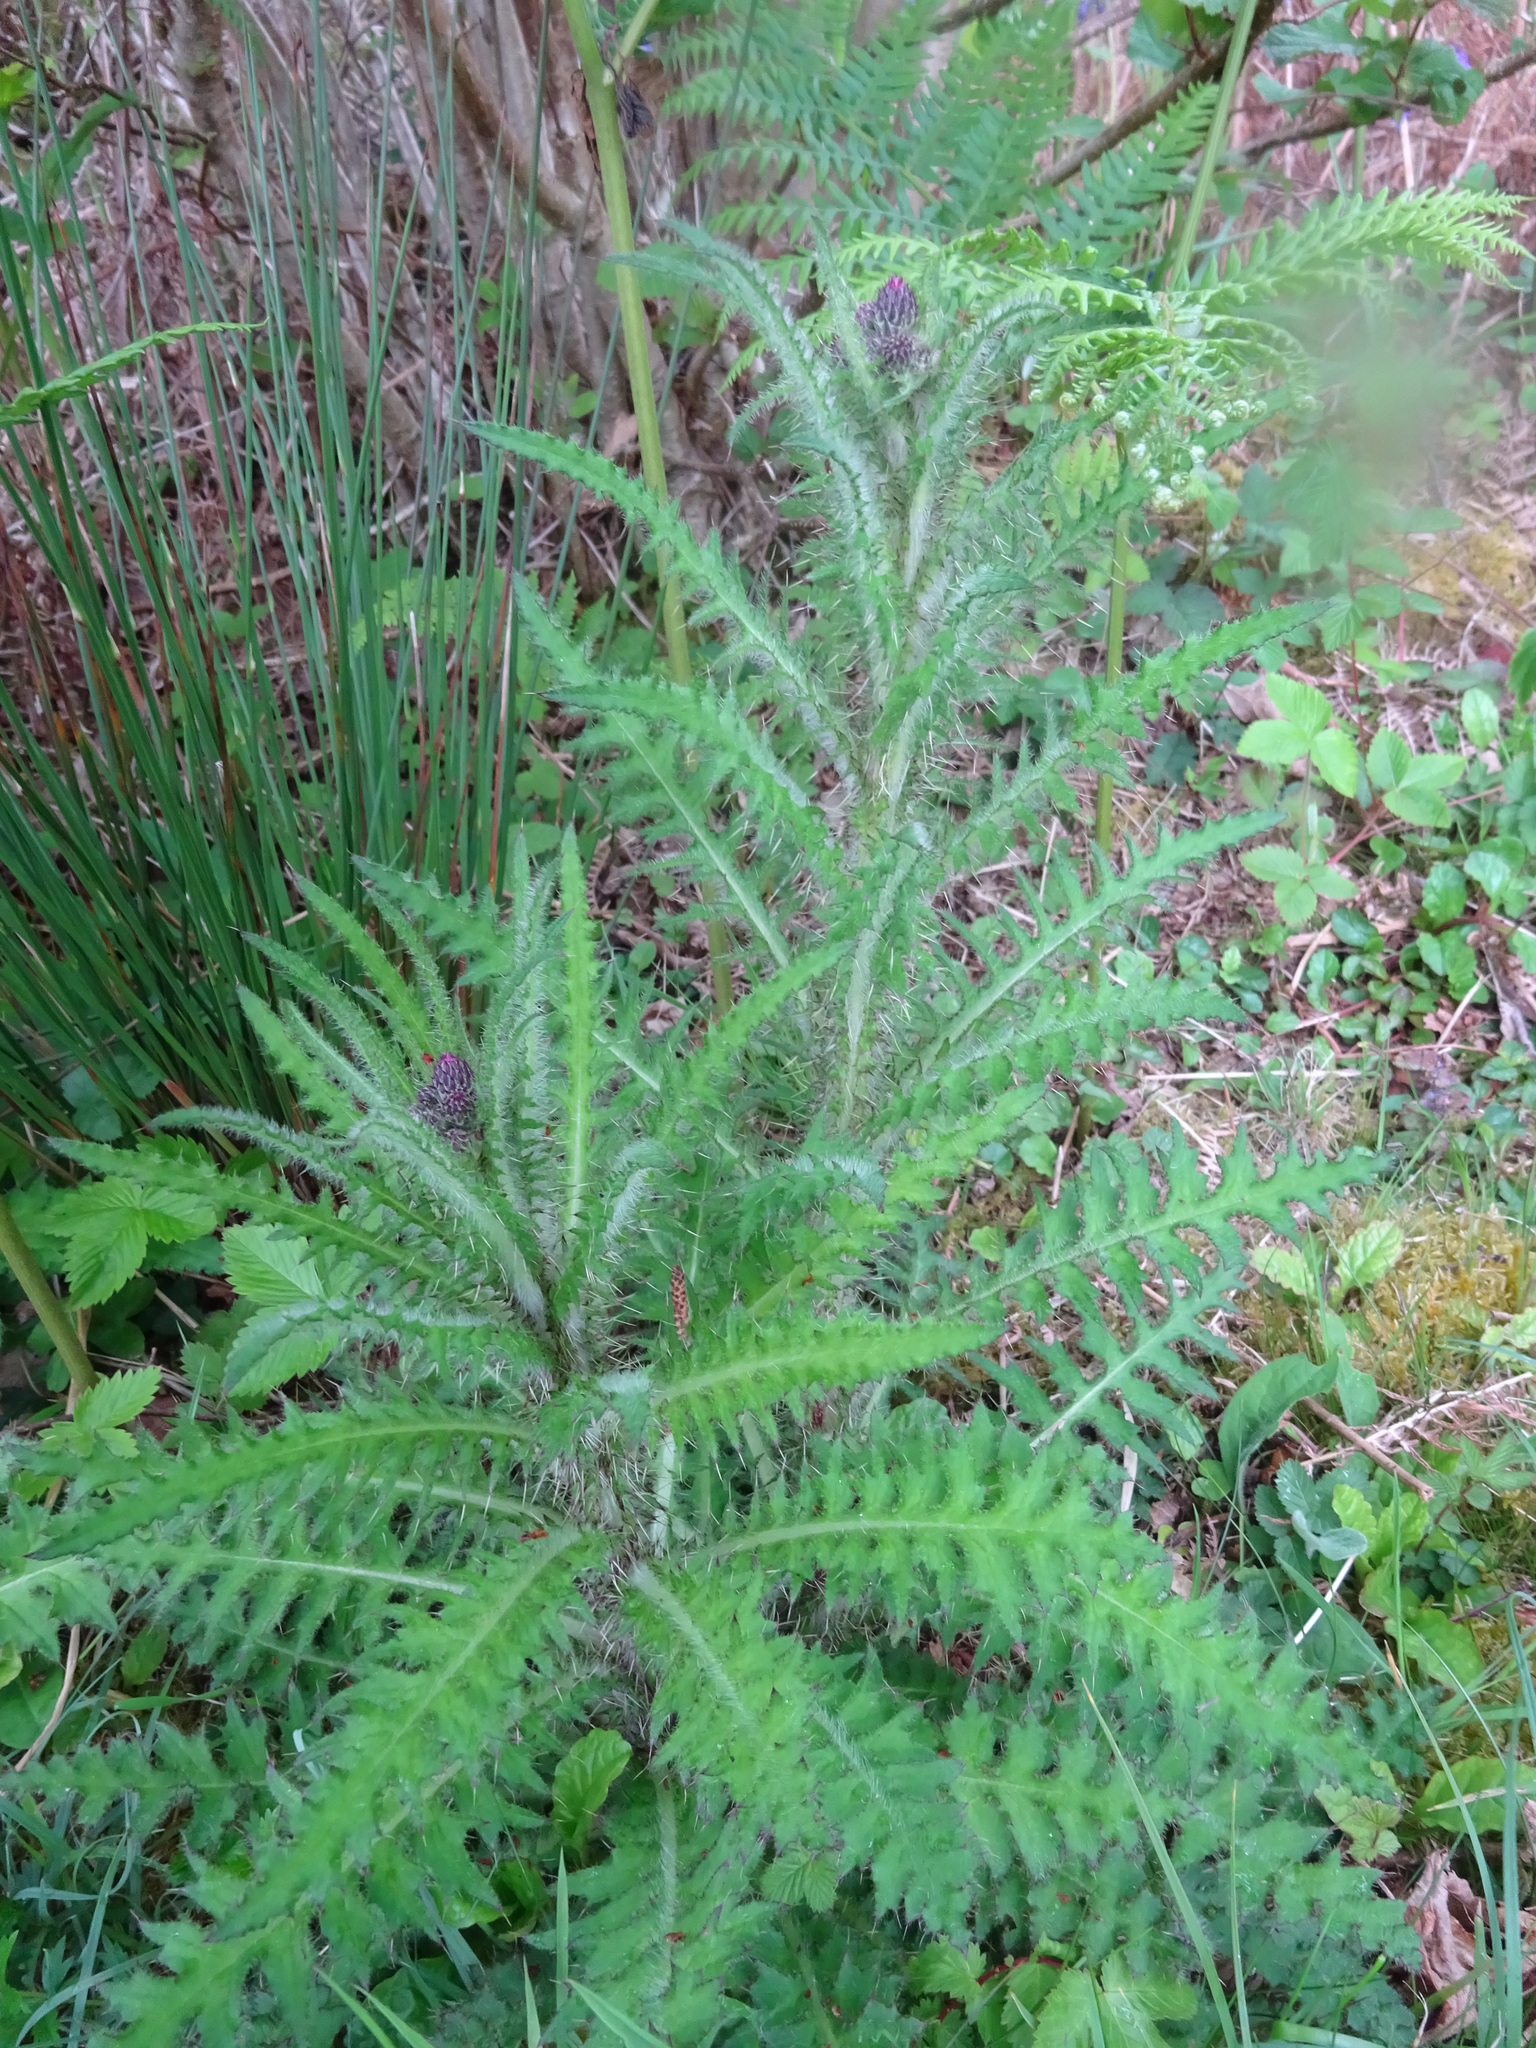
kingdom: Plantae
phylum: Tracheophyta
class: Magnoliopsida
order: Asterales
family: Asteraceae
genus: Cirsium
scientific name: Cirsium palustre
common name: Marsh thistle
